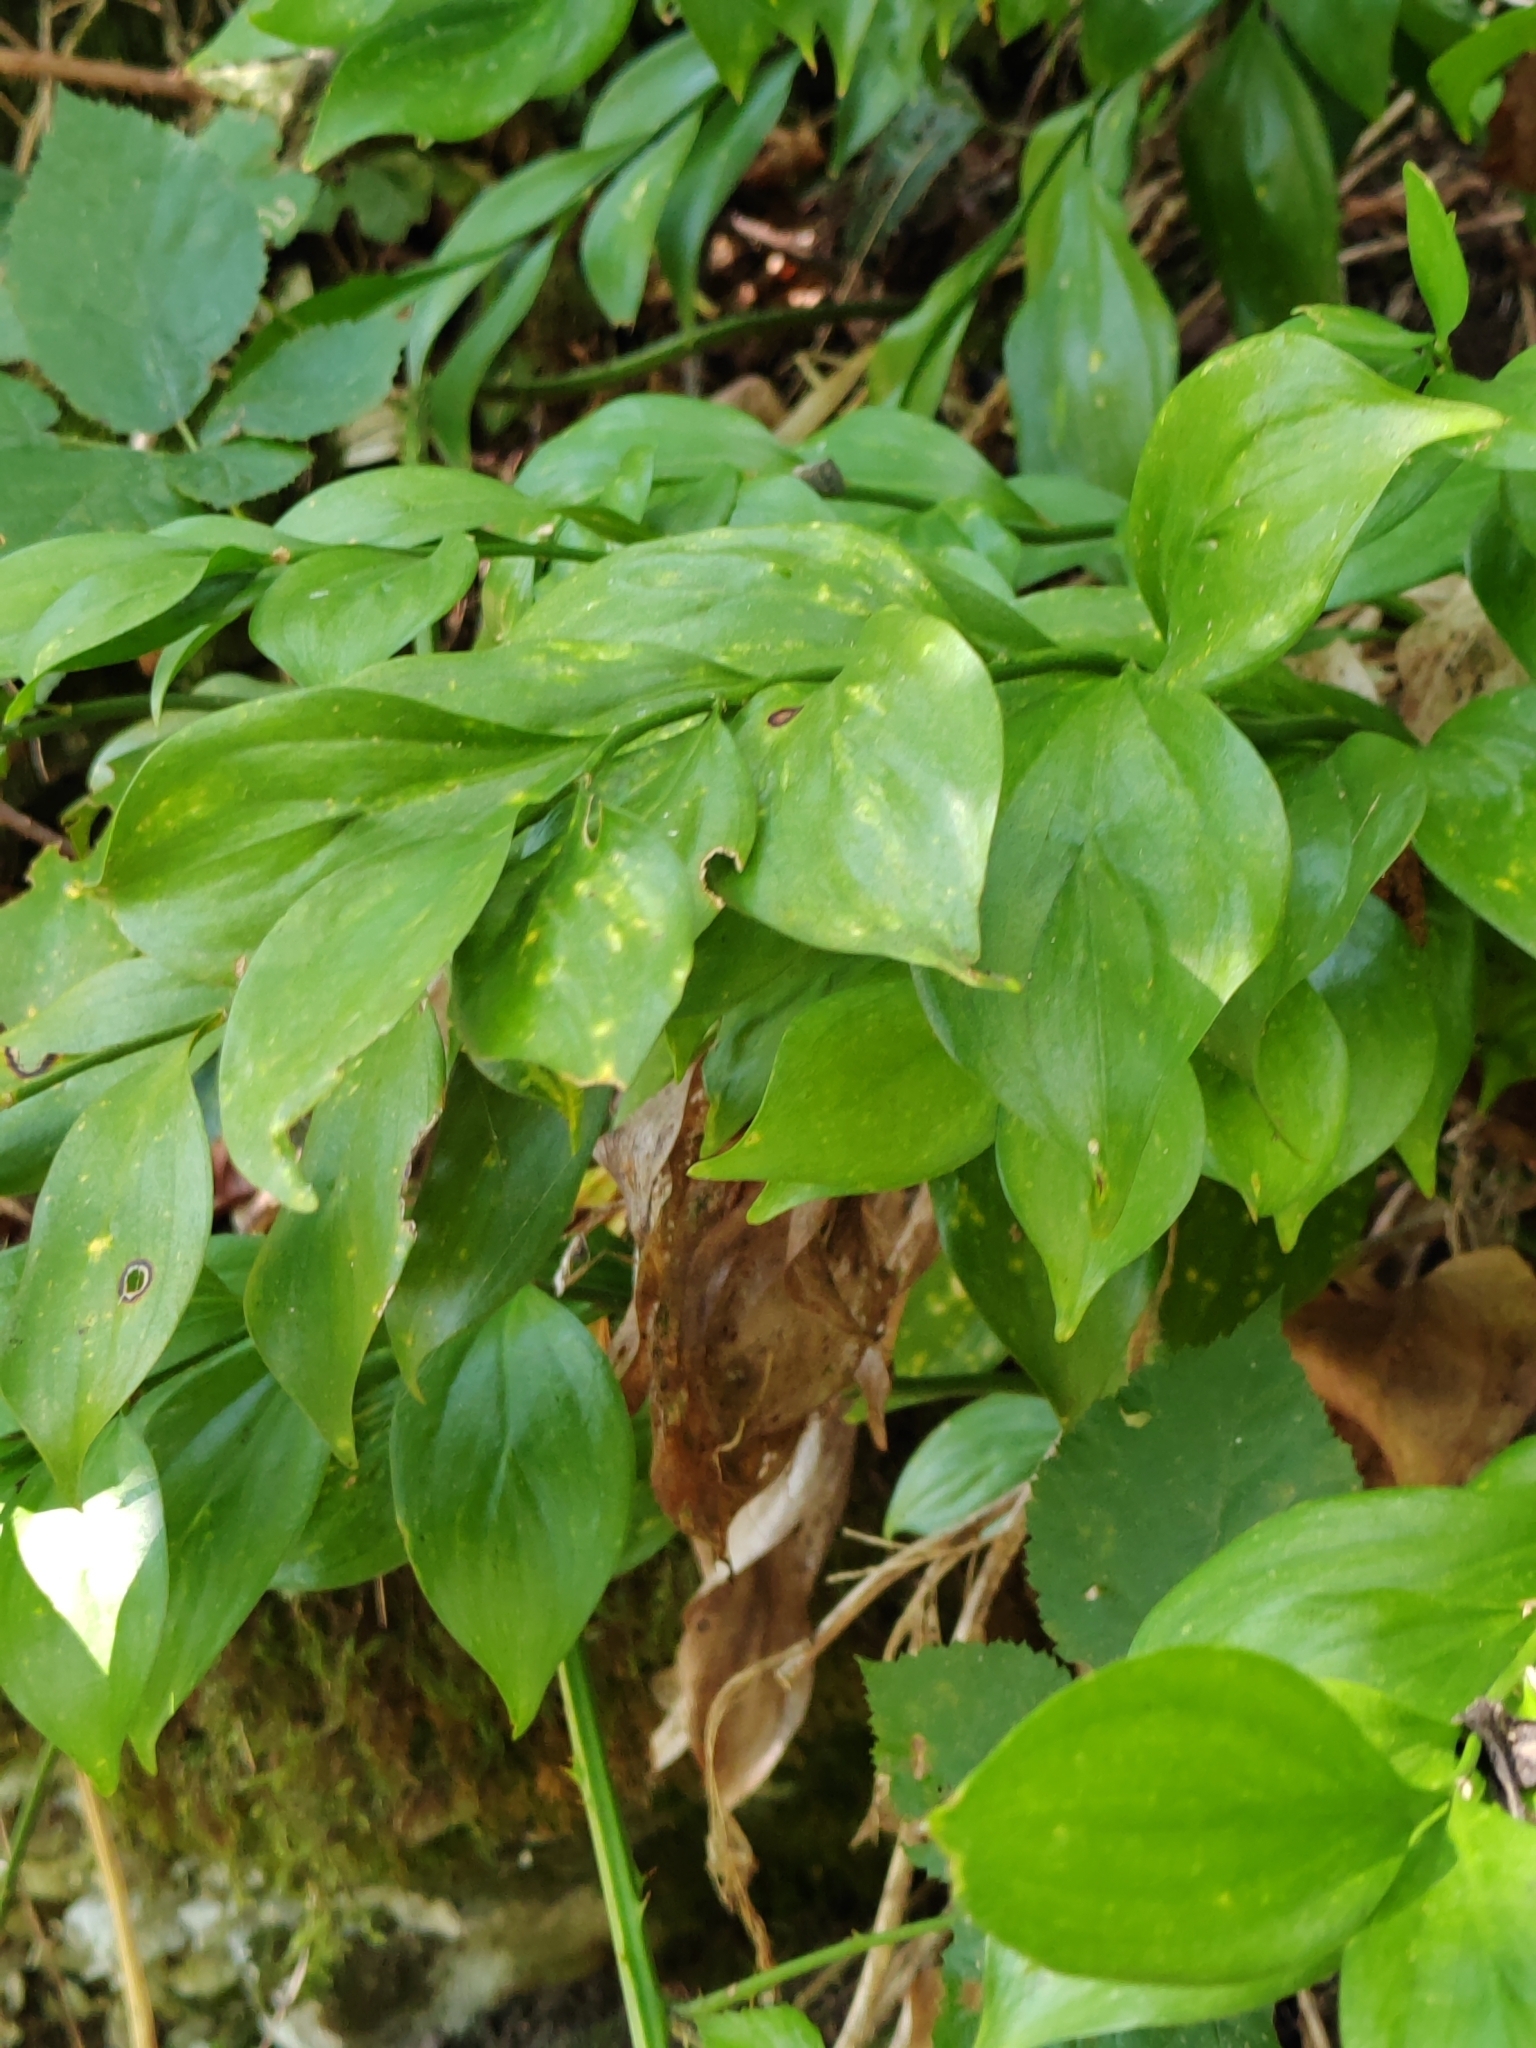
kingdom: Plantae
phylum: Tracheophyta
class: Liliopsida
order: Asparagales
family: Asparagaceae
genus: Ruscus
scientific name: Ruscus colchicus
